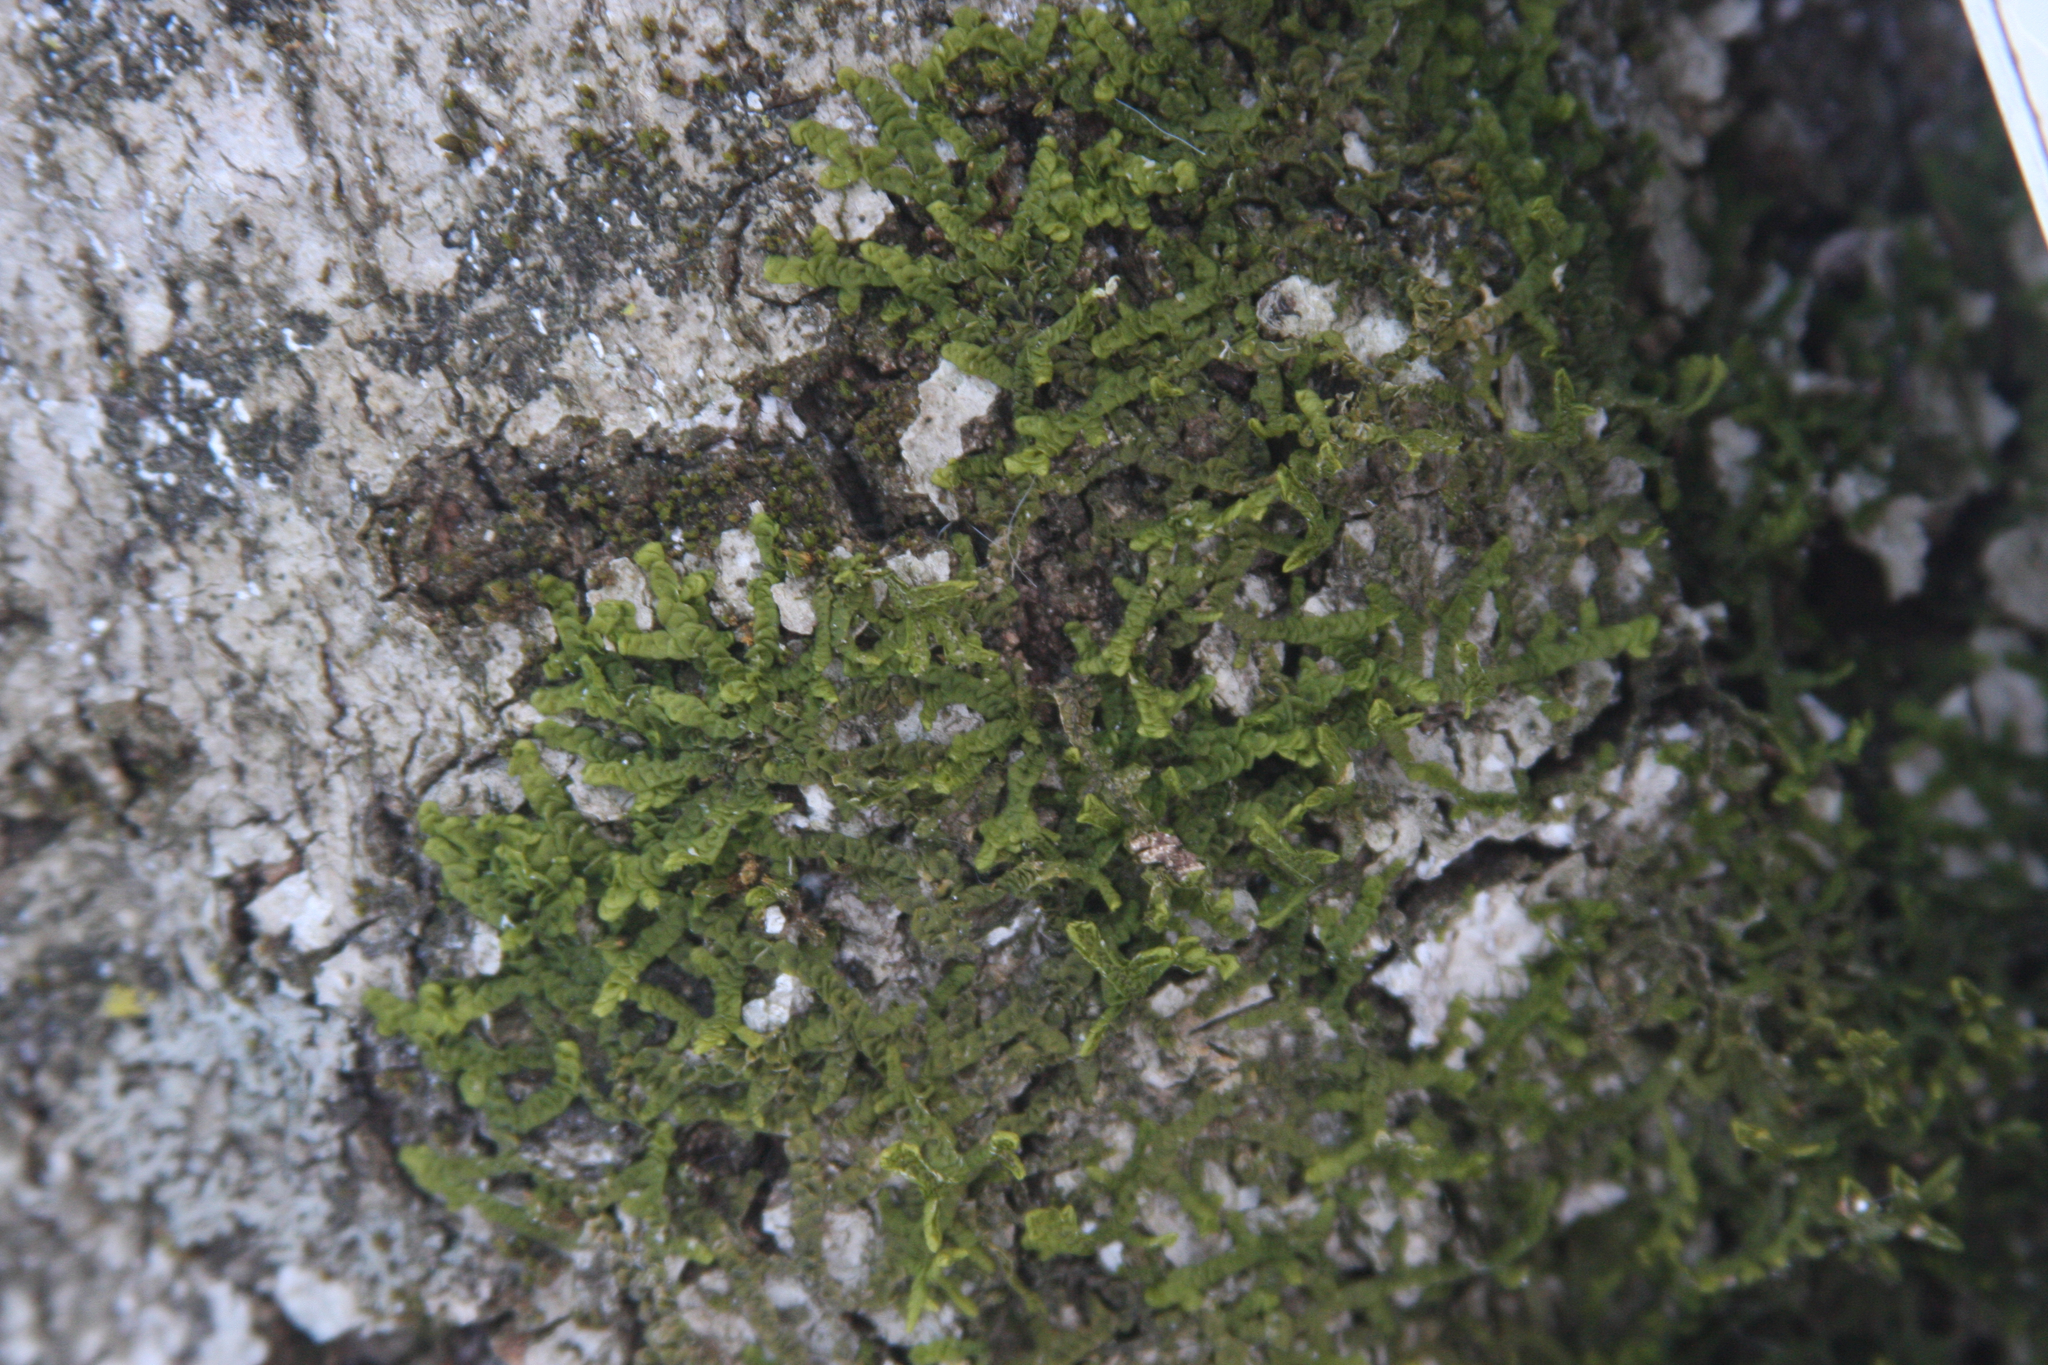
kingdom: Plantae
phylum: Marchantiophyta
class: Jungermanniopsida
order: Porellales
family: Porellaceae
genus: Porella
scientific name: Porella platyphylla
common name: Wall scalewort
